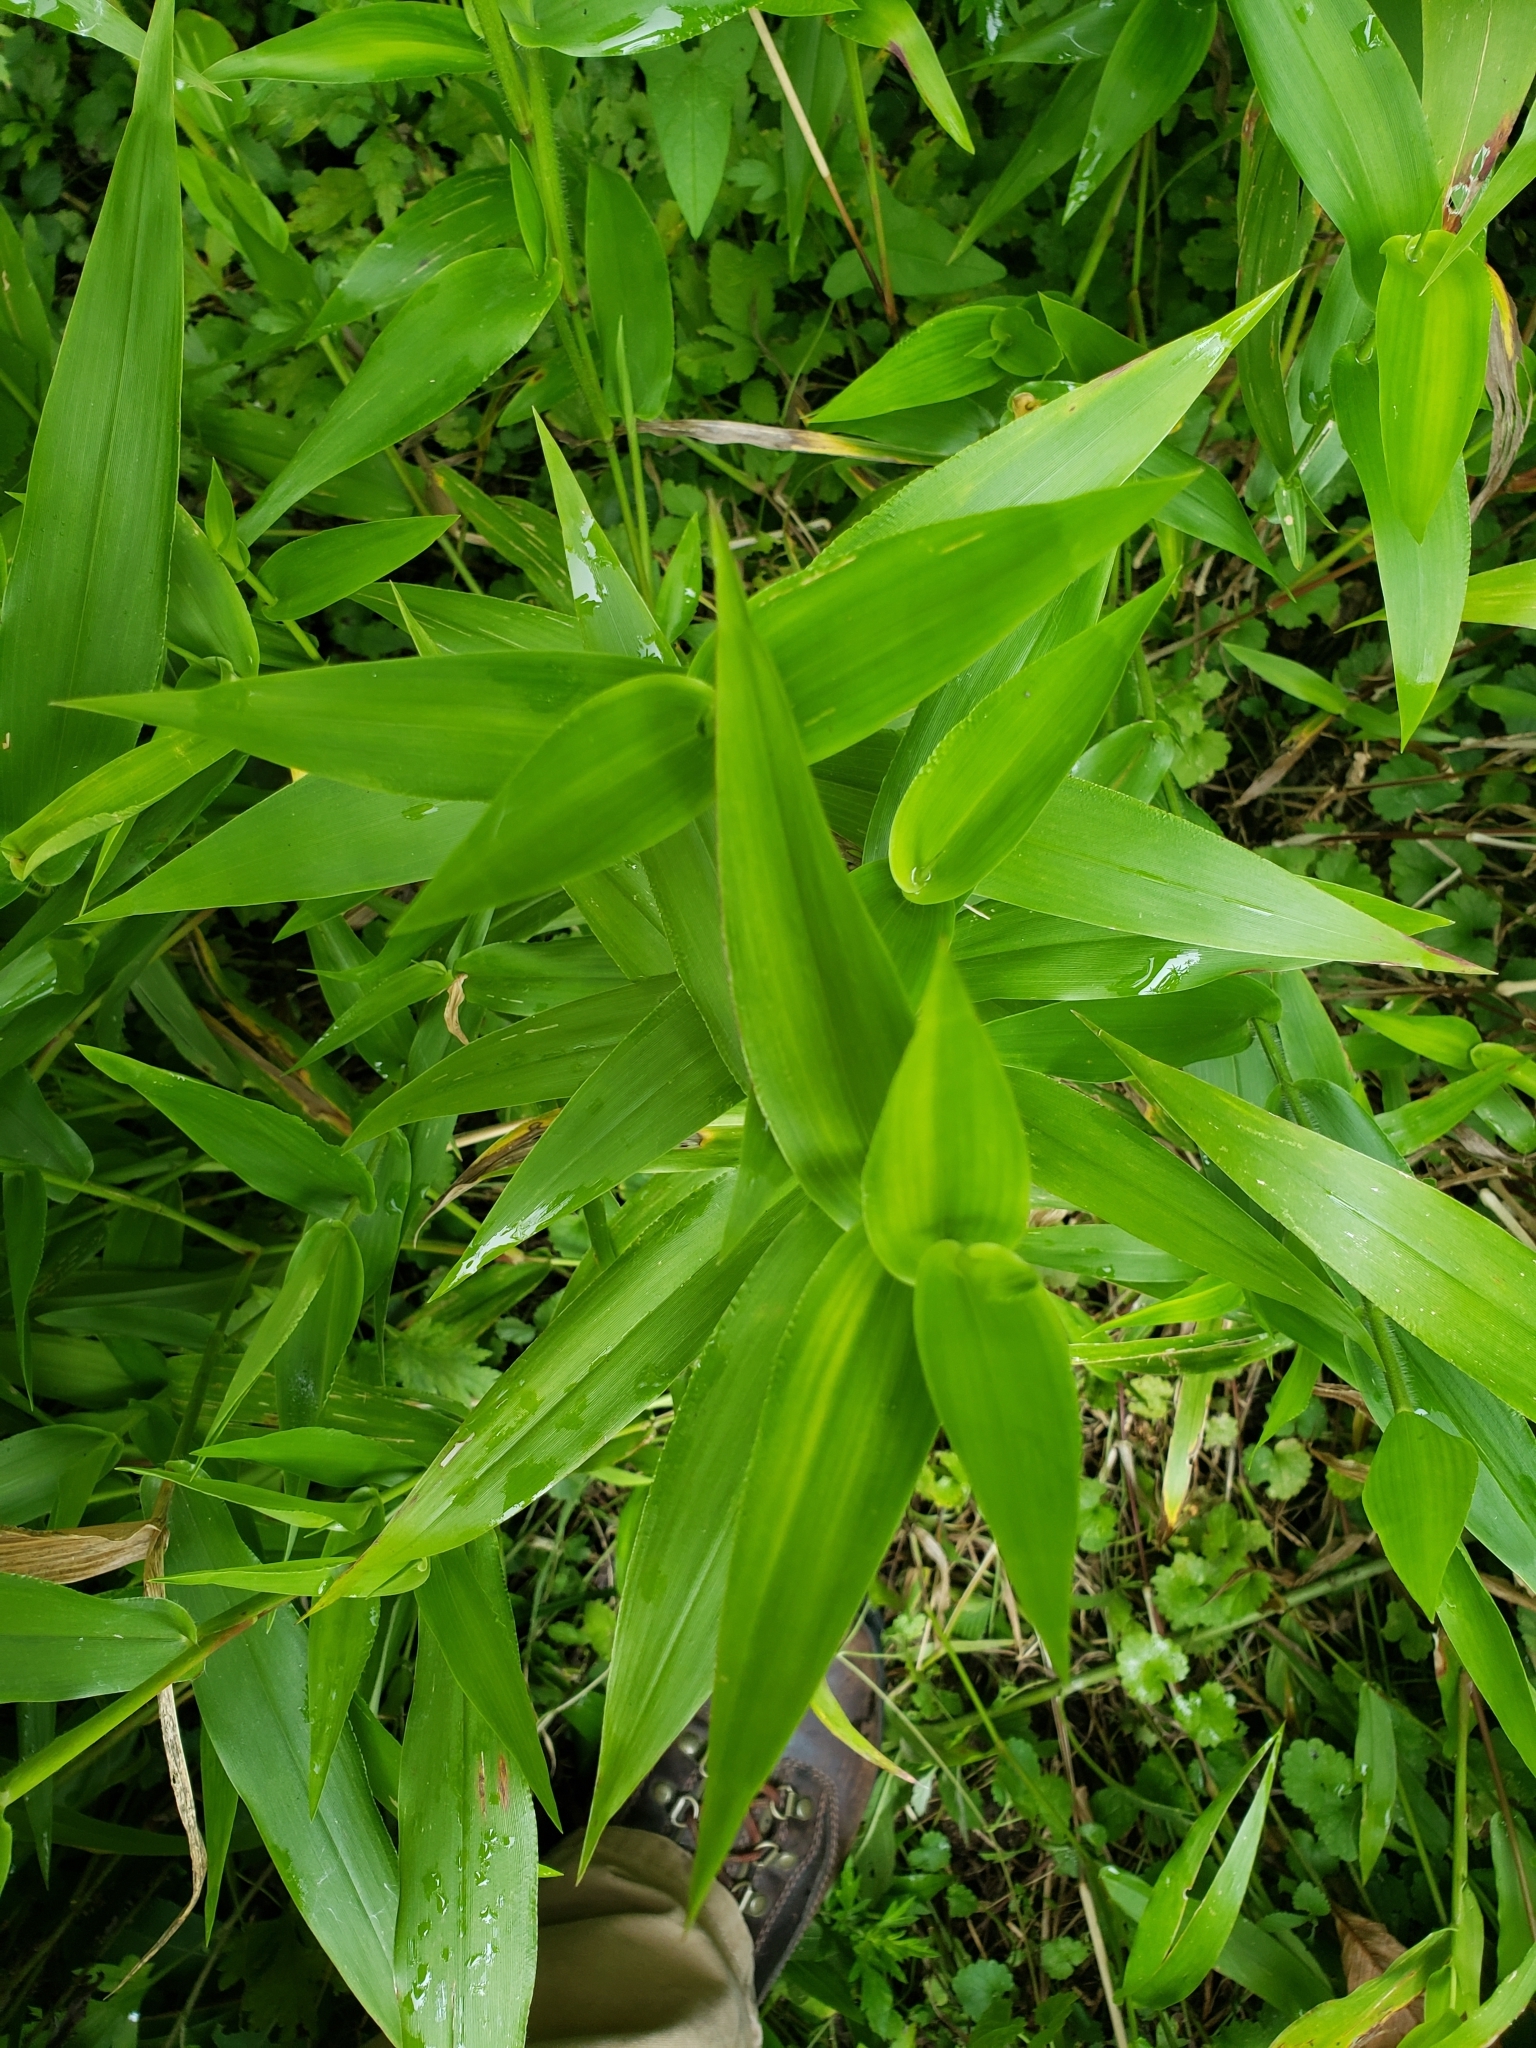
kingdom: Plantae
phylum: Tracheophyta
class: Liliopsida
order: Poales
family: Poaceae
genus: Dichanthelium
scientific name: Dichanthelium clandestinum
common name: Deer-tongue grass
